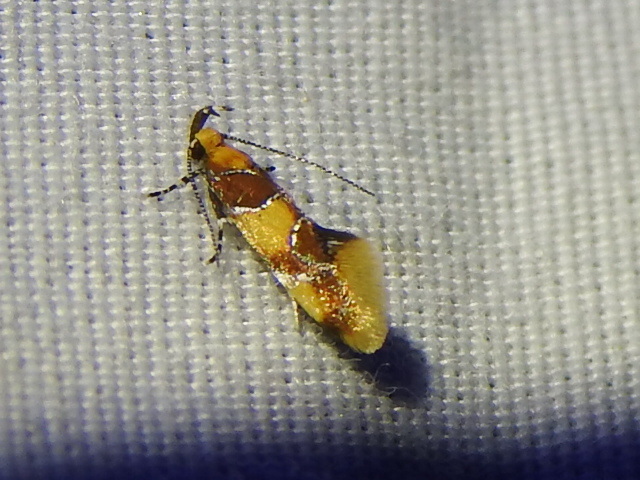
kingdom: Animalia
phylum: Arthropoda
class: Insecta
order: Lepidoptera
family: Oecophoridae
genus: Callima
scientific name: Callima argenticinctella
